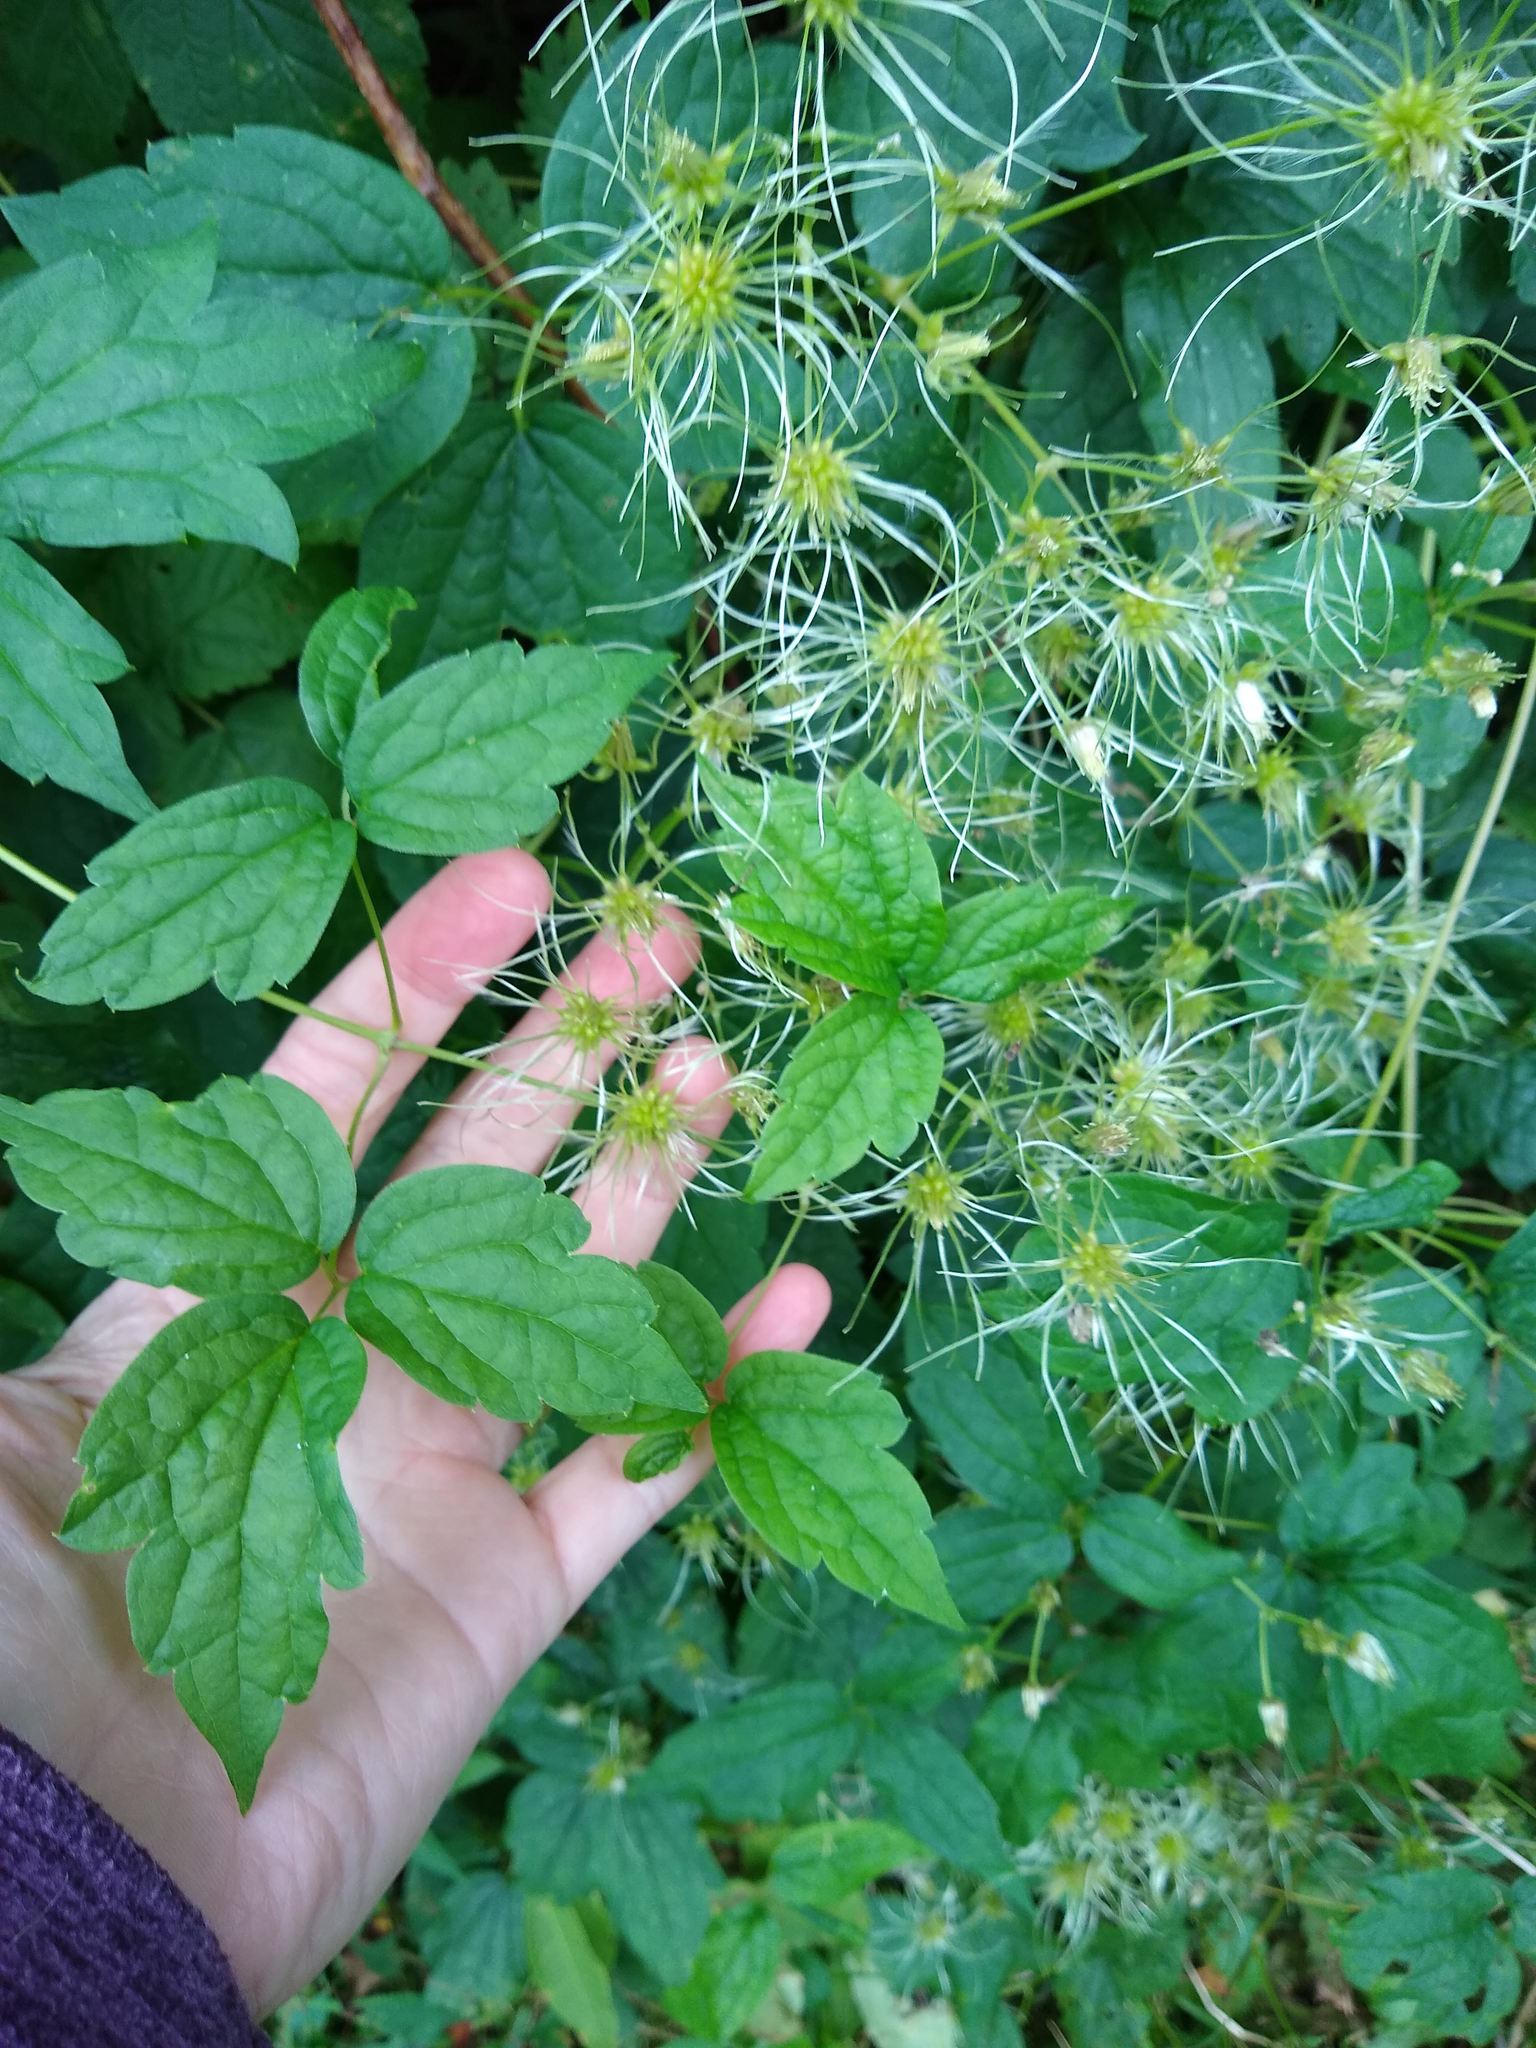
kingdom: Plantae
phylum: Tracheophyta
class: Magnoliopsida
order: Ranunculales
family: Ranunculaceae
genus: Clematis
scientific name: Clematis virginiana
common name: Virgin's-bower
